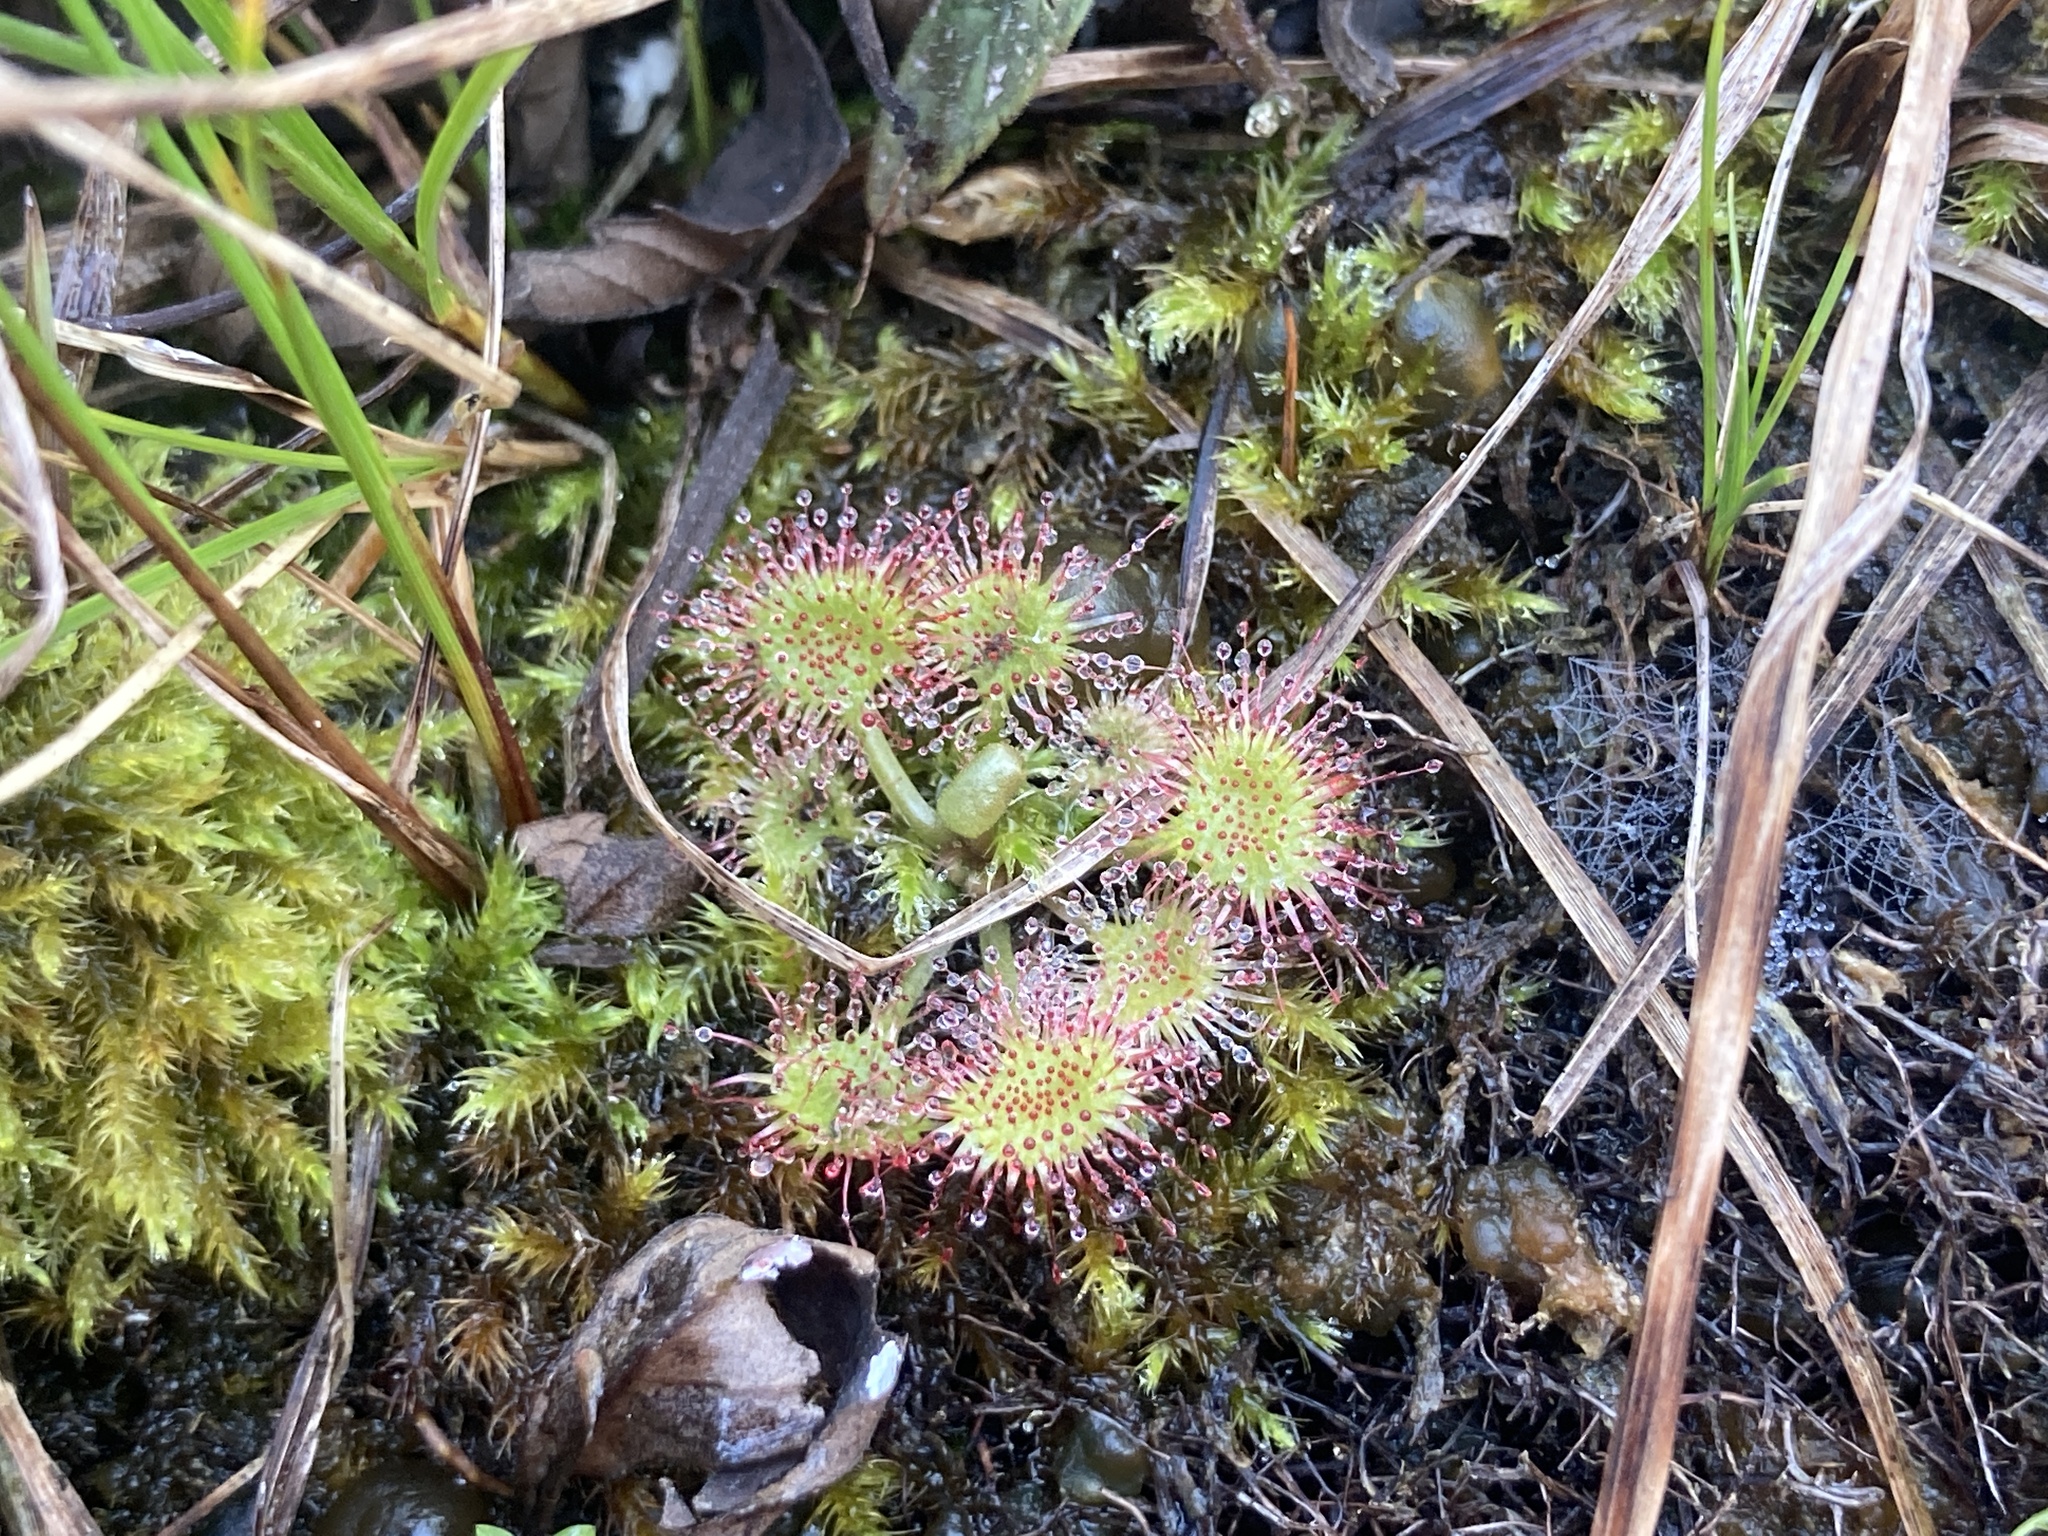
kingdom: Plantae
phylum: Tracheophyta
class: Magnoliopsida
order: Caryophyllales
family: Droseraceae
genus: Drosera
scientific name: Drosera rotundifolia
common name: Round-leaved sundew
